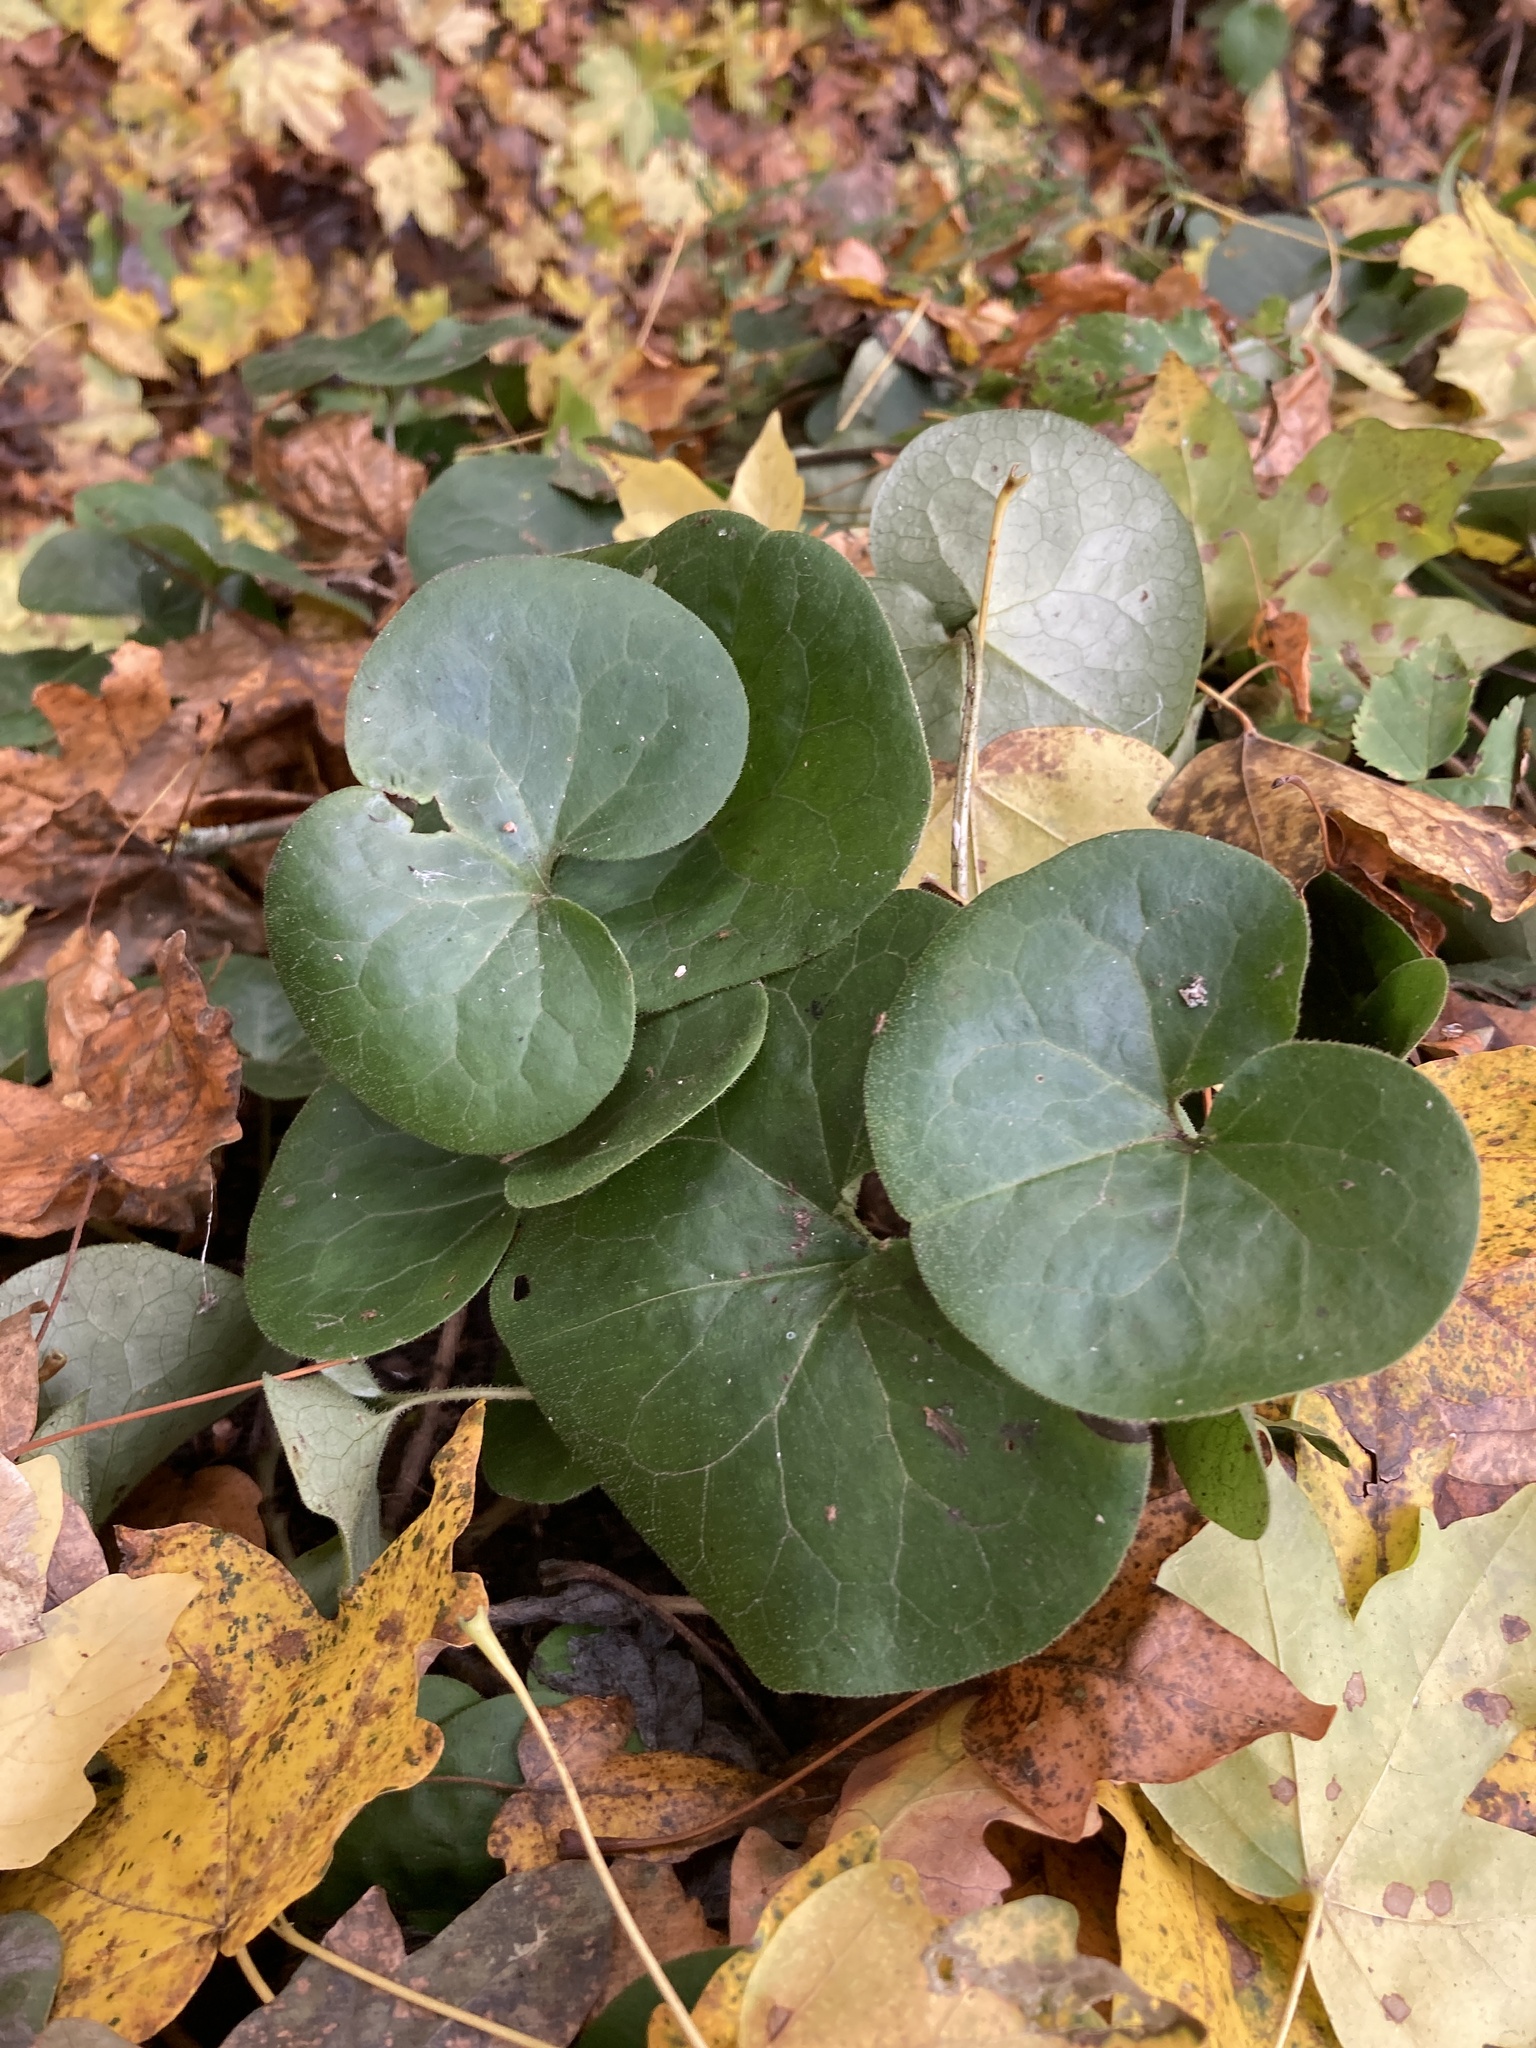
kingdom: Plantae
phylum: Tracheophyta
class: Magnoliopsida
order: Piperales
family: Aristolochiaceae
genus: Asarum
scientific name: Asarum europaeum
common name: Asarabacca
